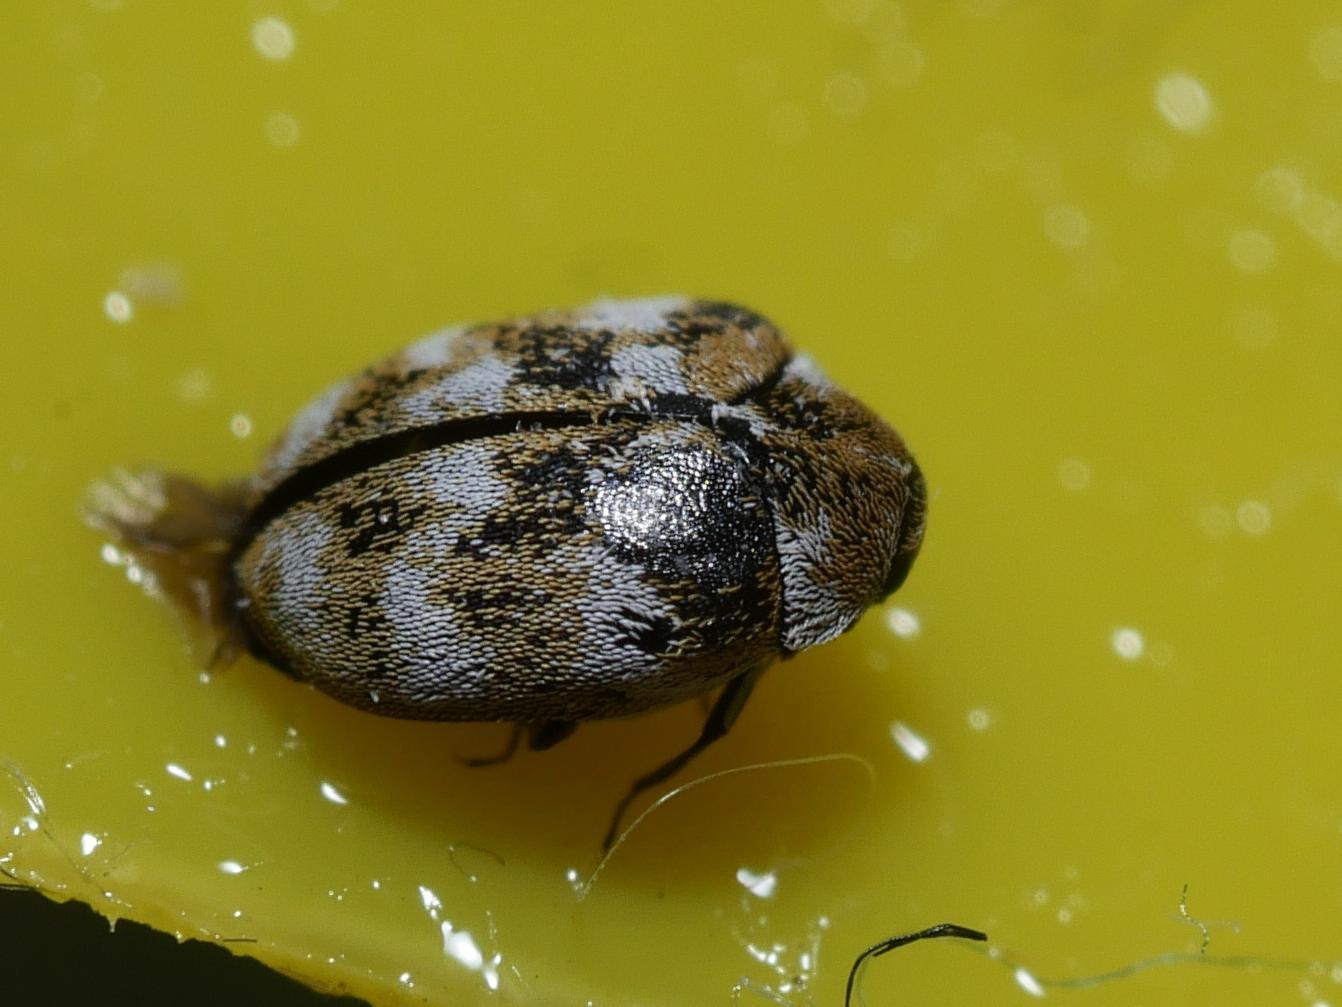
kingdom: Animalia
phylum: Arthropoda
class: Insecta
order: Coleoptera
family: Dermestidae
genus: Anthrenus
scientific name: Anthrenus verbasci
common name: Varied carpet beetle
